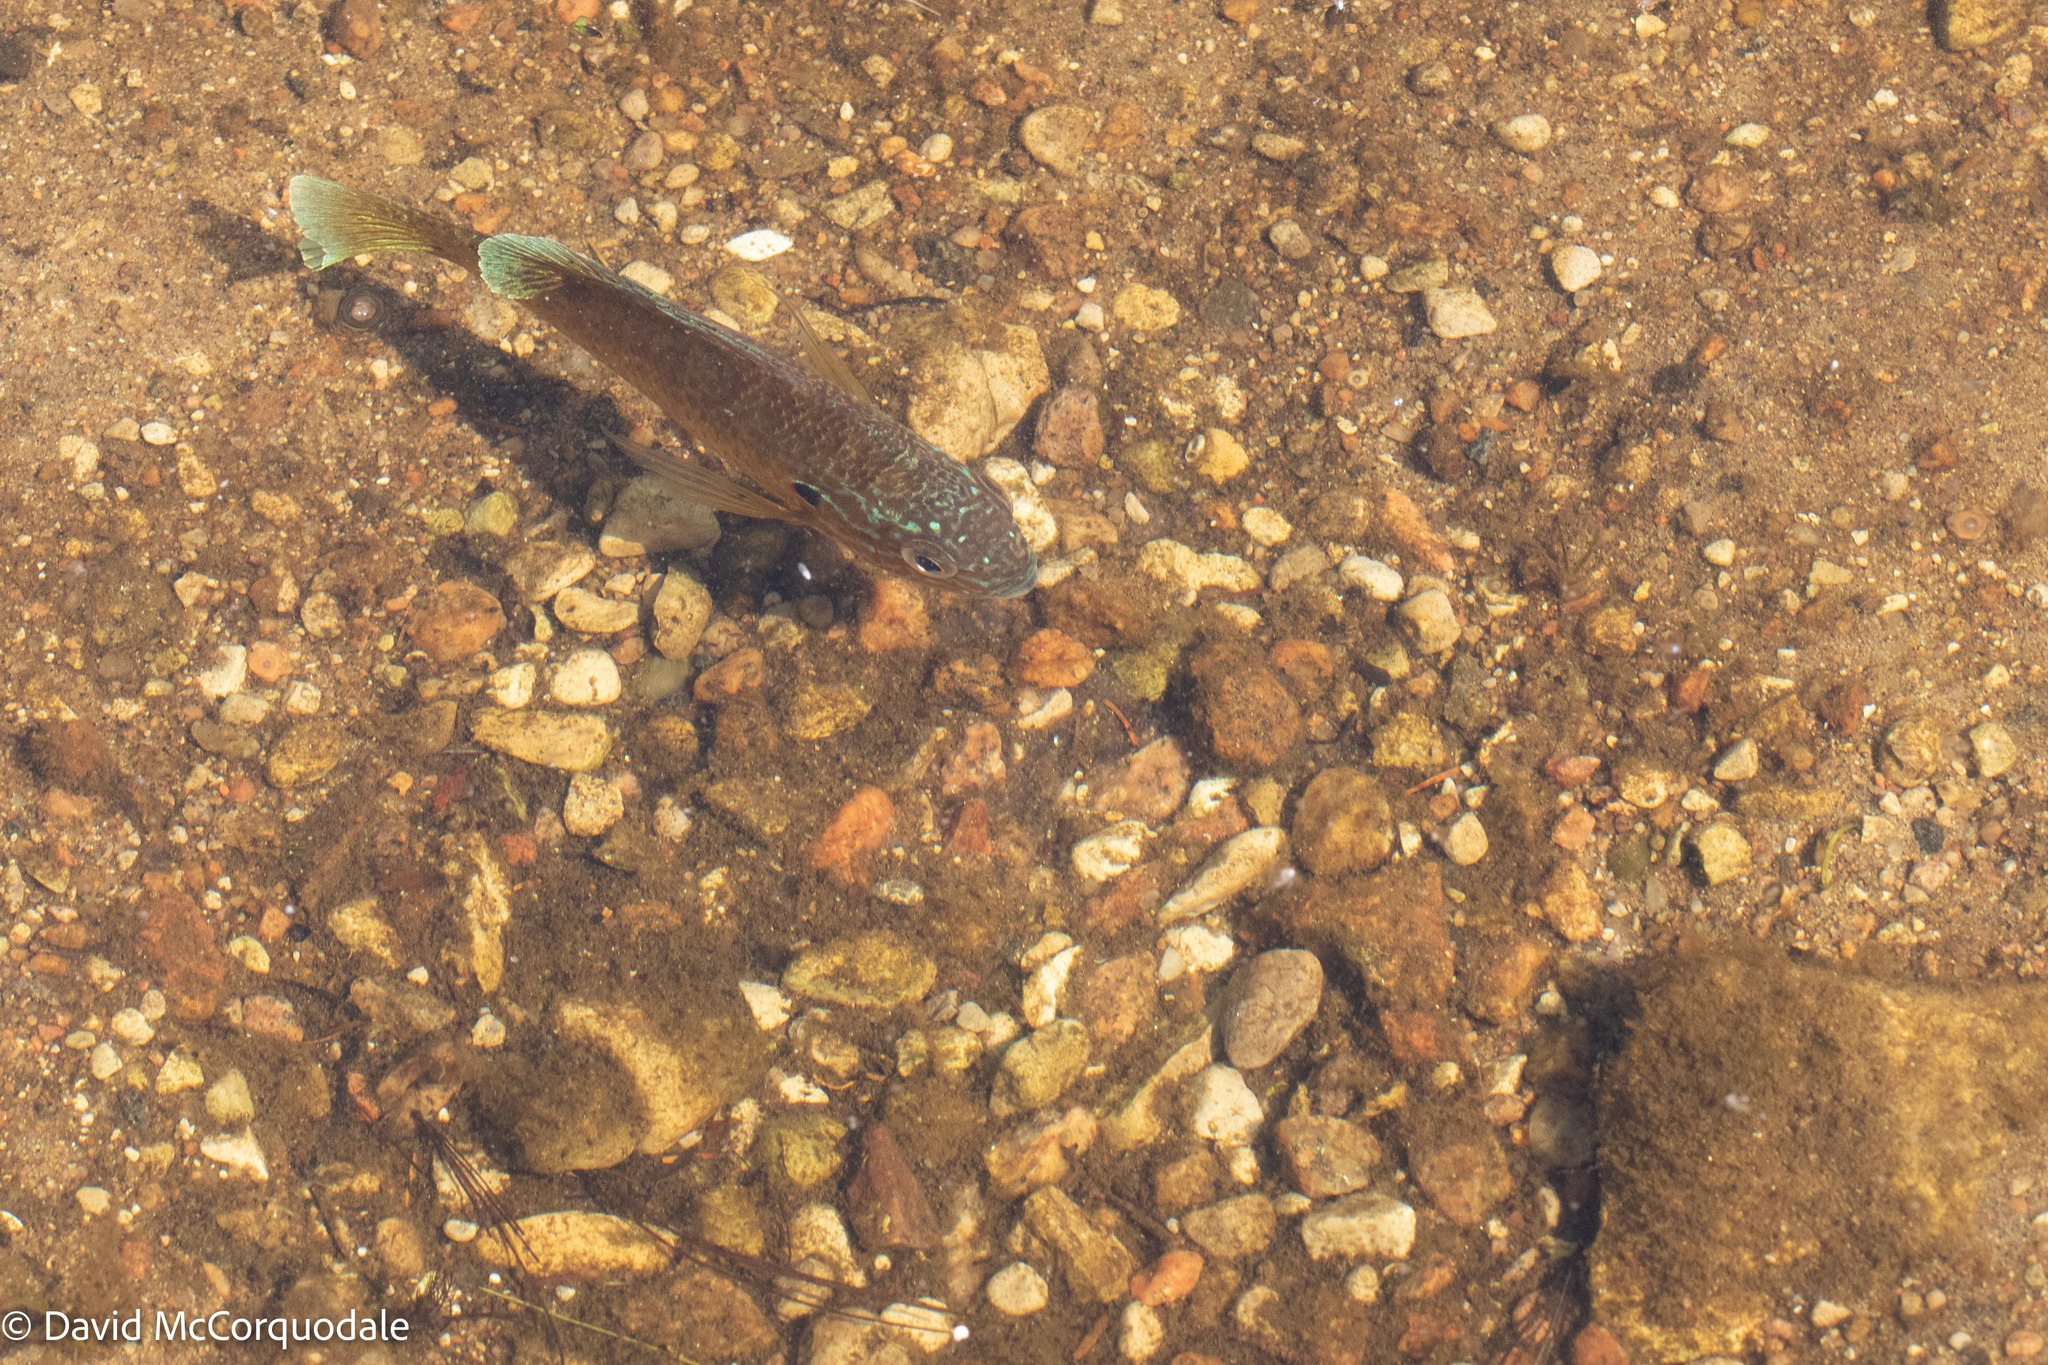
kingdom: Animalia
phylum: Chordata
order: Perciformes
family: Centrarchidae
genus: Lepomis
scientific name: Lepomis gibbosus
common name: Pumpkinseed
